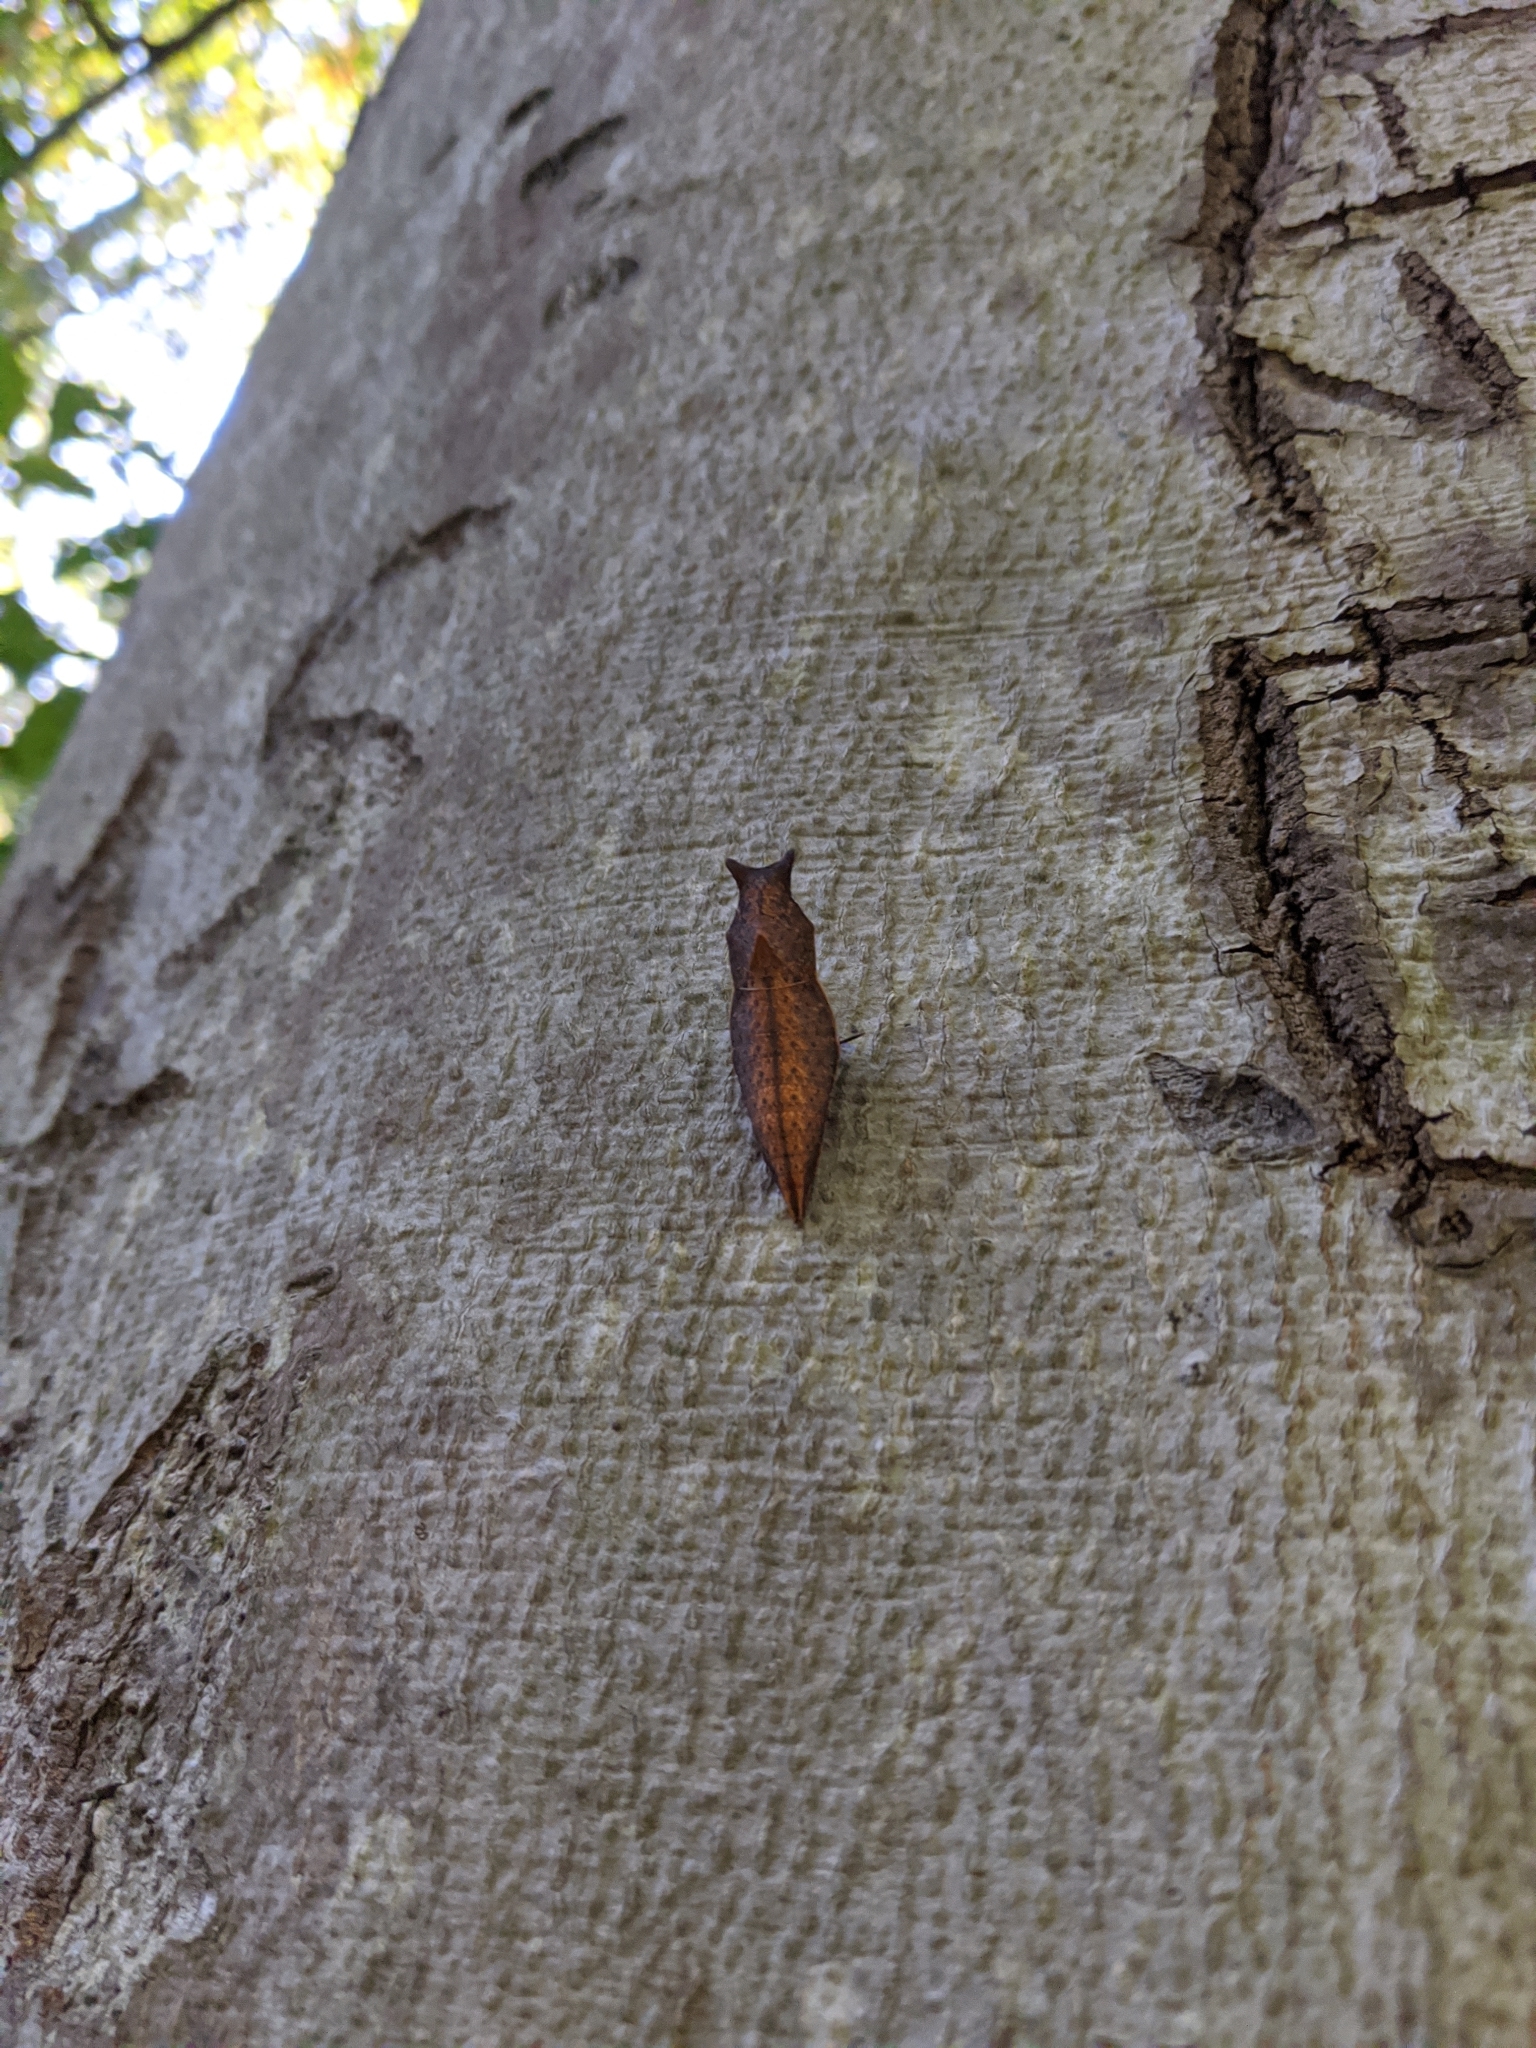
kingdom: Animalia
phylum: Arthropoda
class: Insecta
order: Lepidoptera
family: Papilionidae
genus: Papilio
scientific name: Papilio troilus
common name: Spicebush swallowtail
